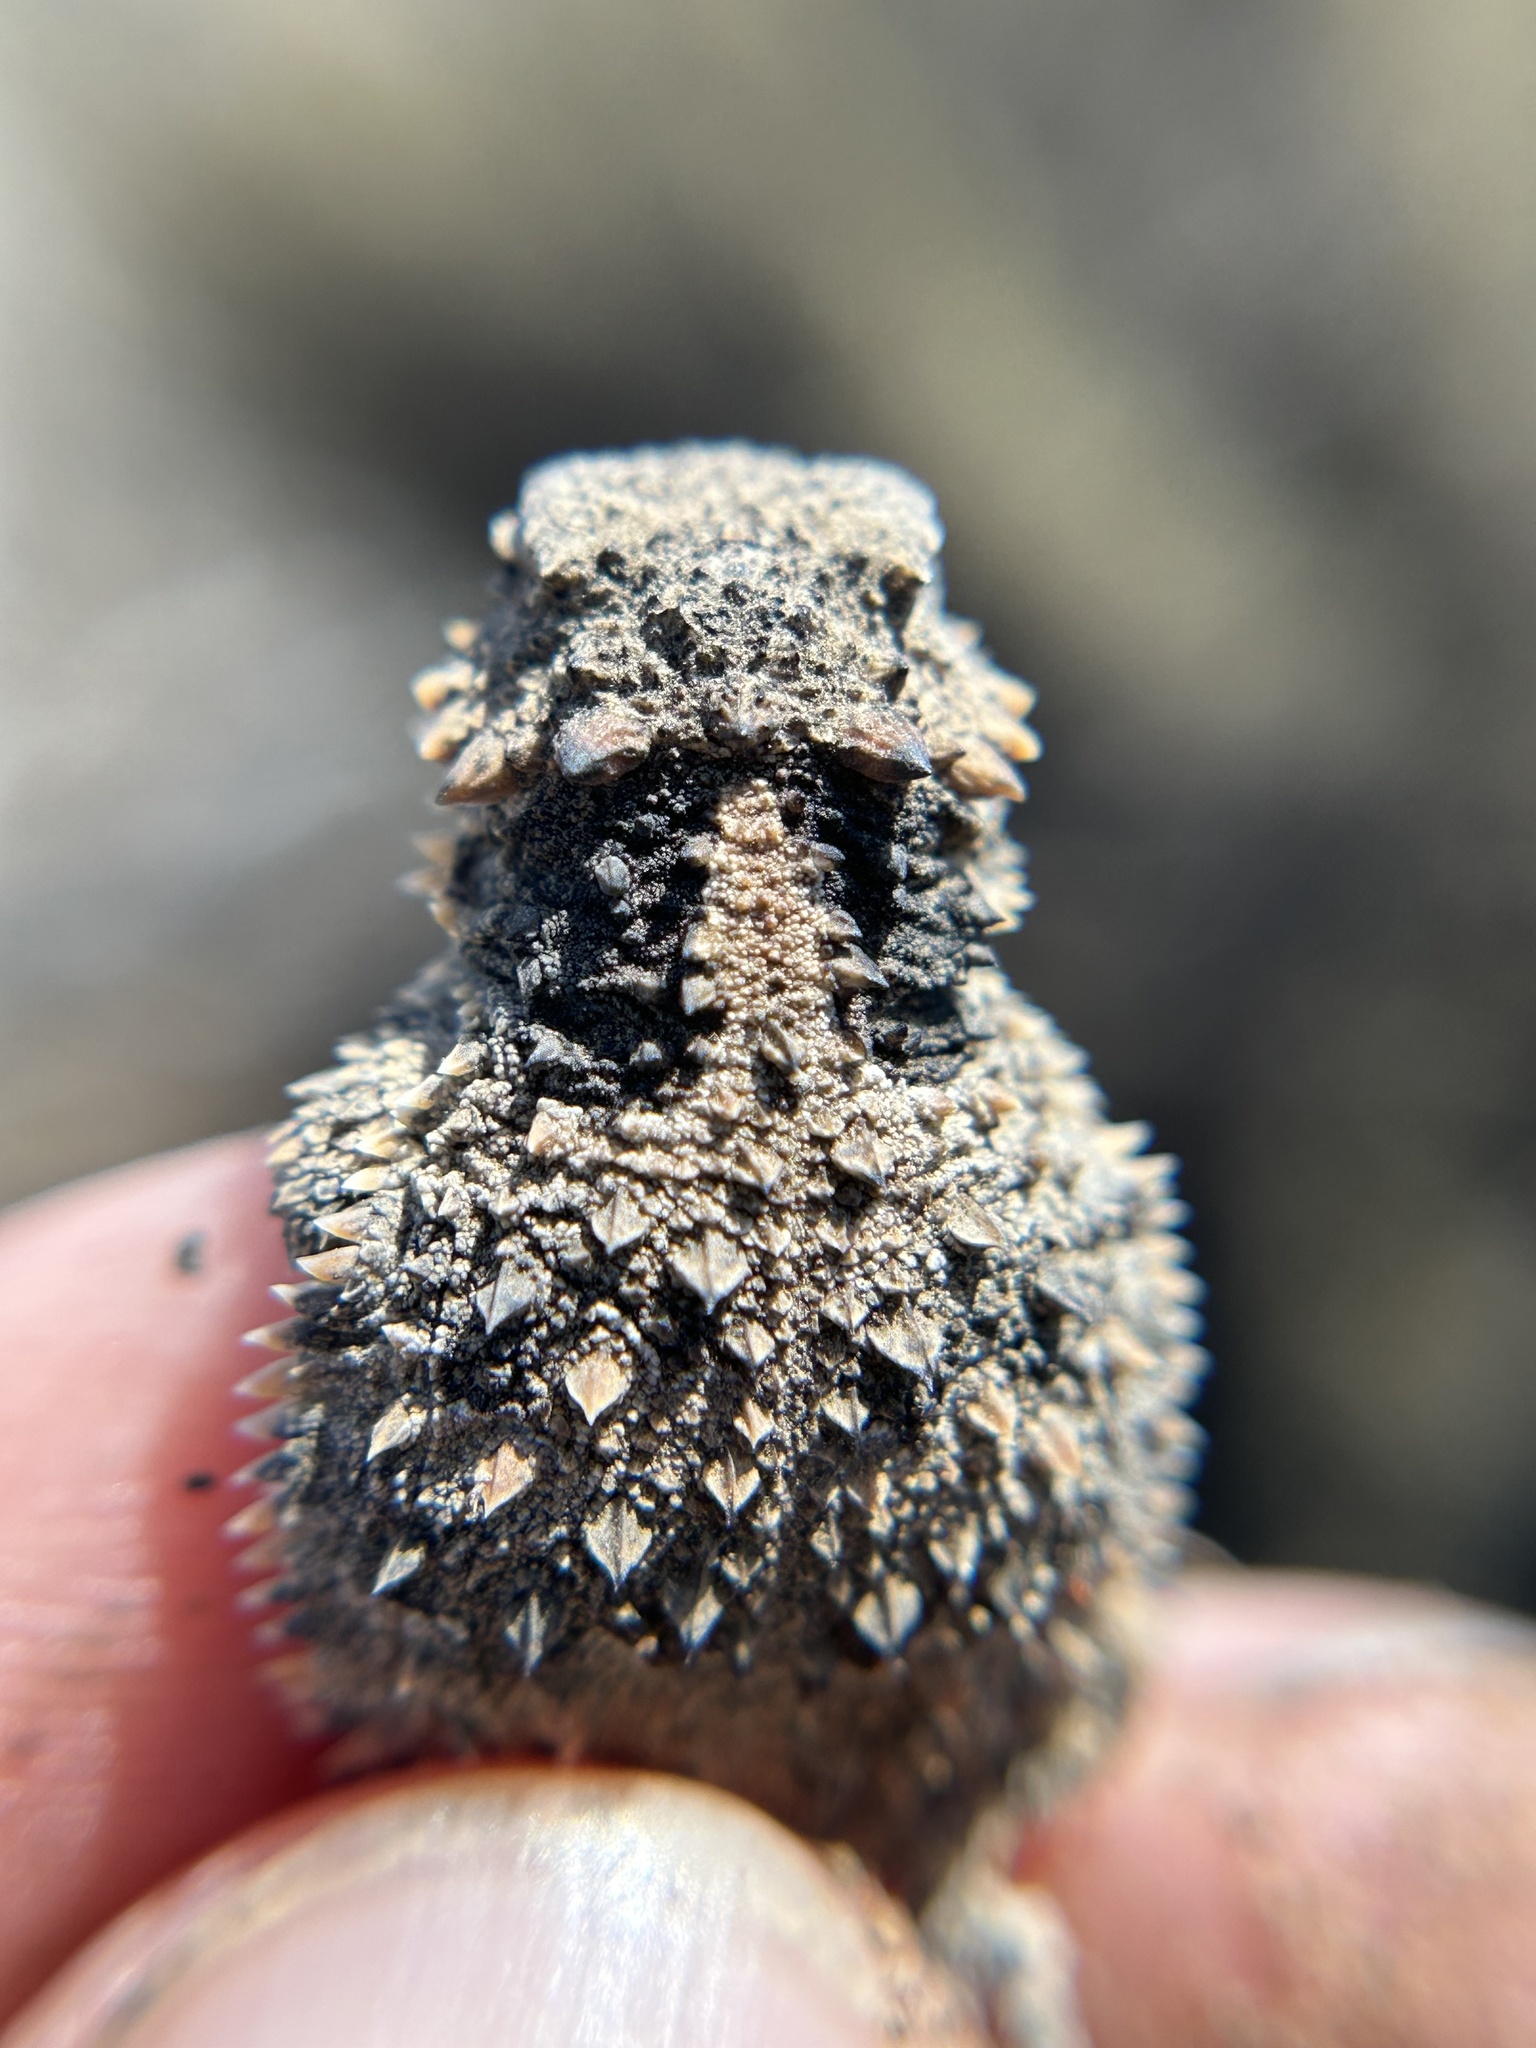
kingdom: Animalia
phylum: Chordata
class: Squamata
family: Phrynosomatidae
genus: Phrynosoma
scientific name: Phrynosoma blainvillii
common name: San diego horned lizard
